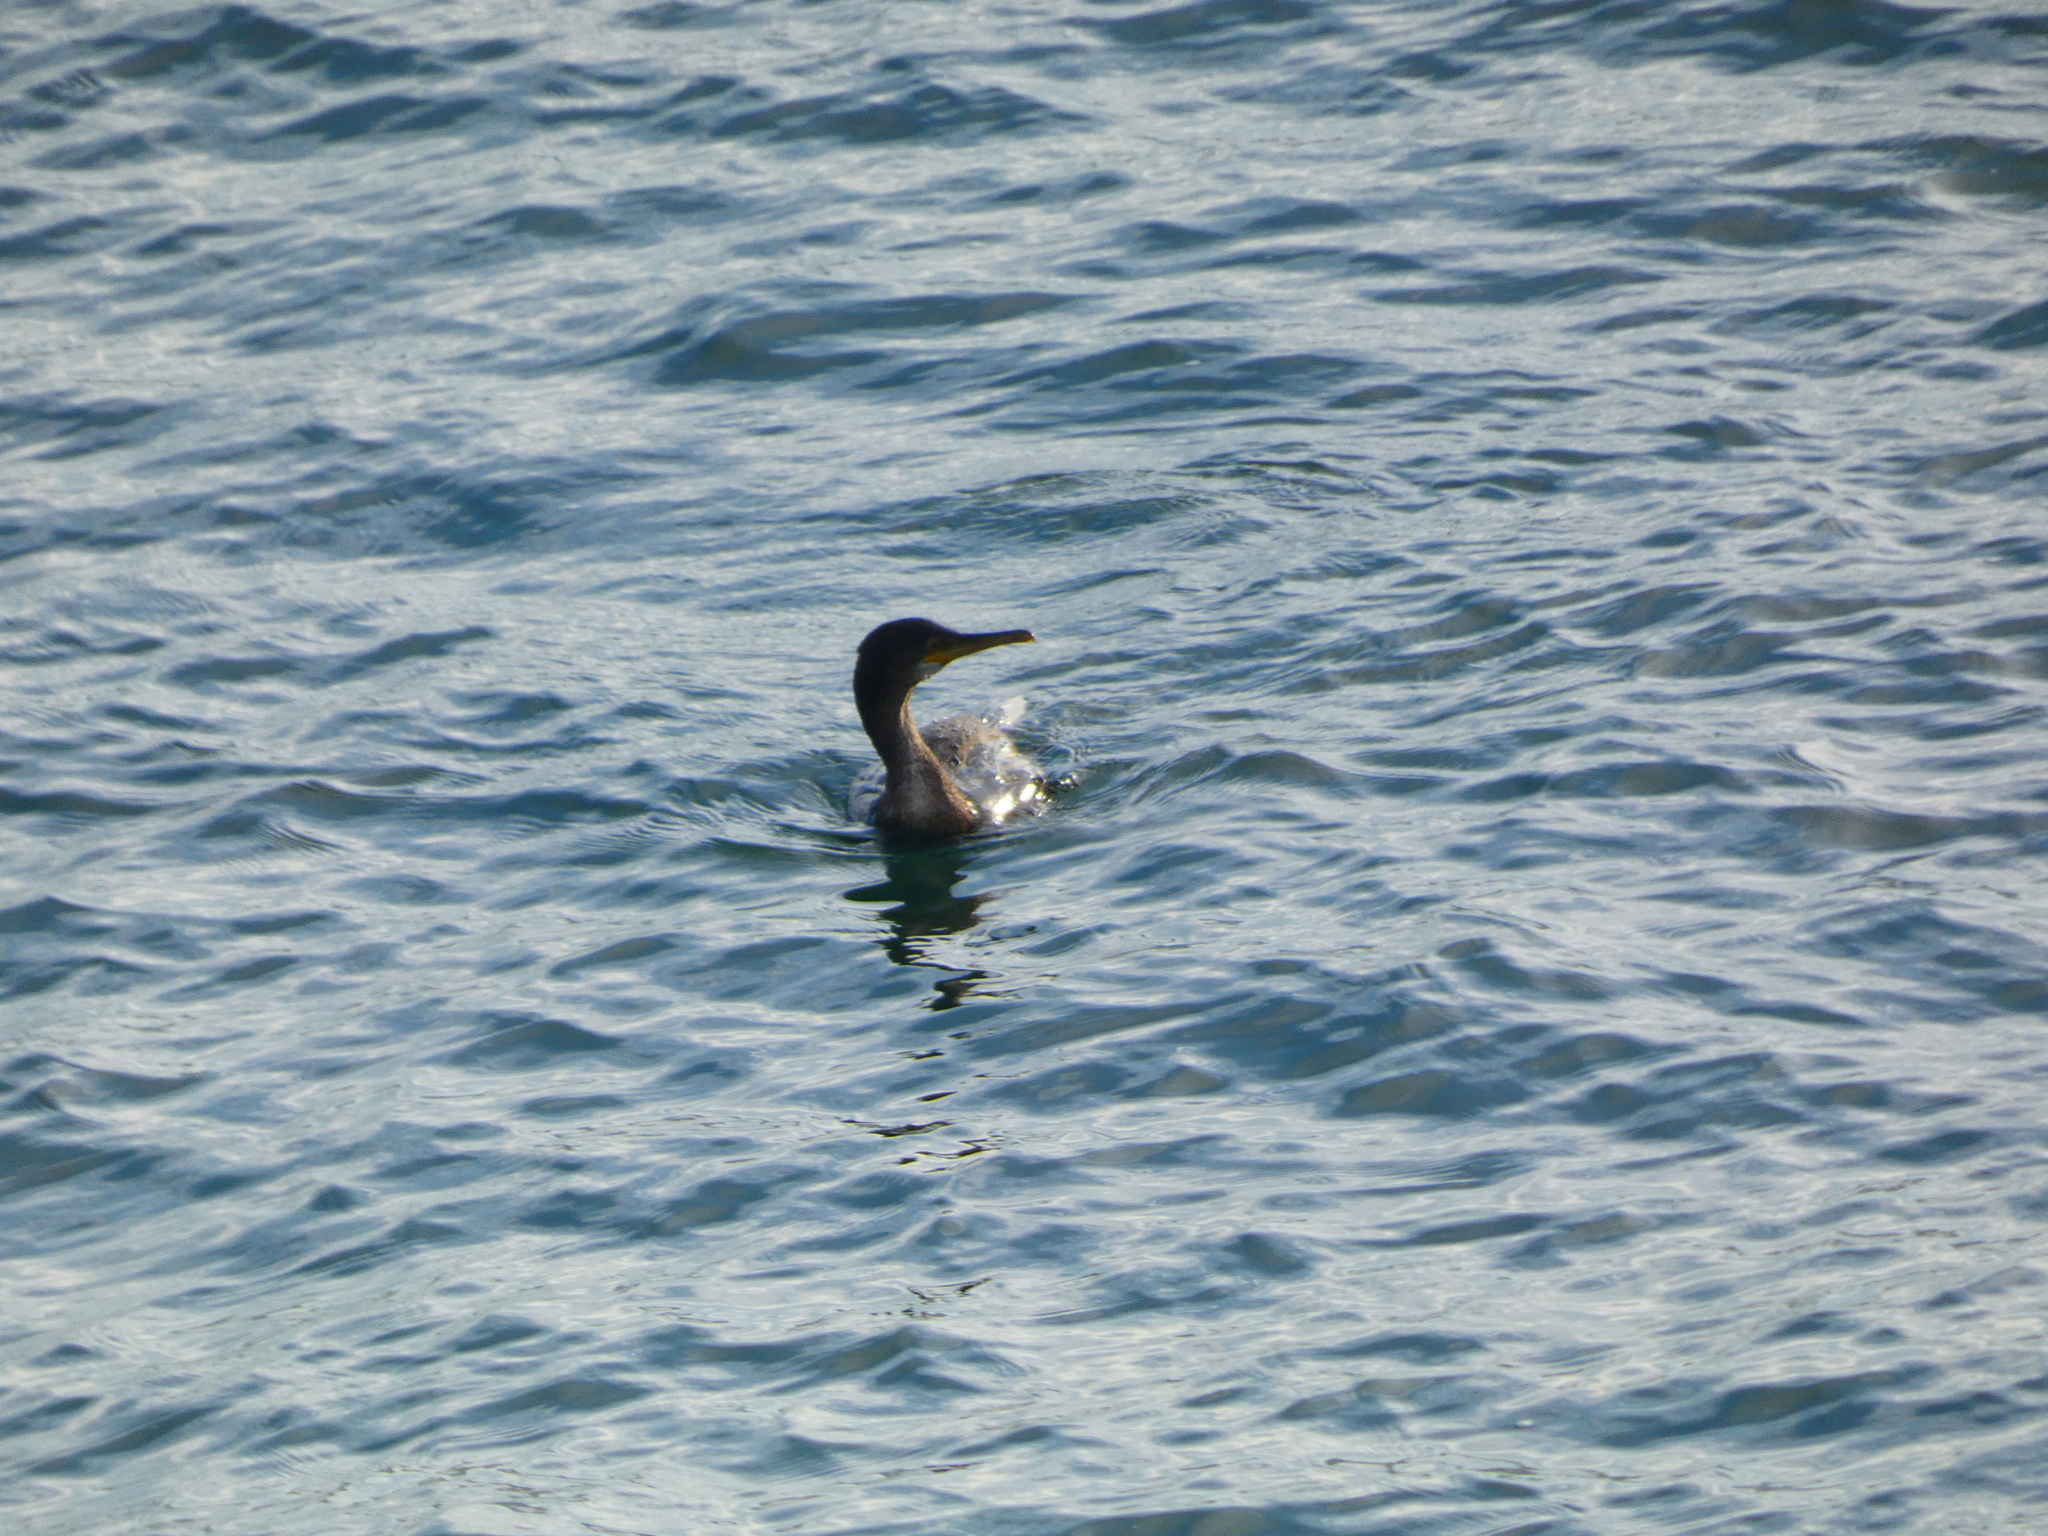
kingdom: Animalia
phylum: Chordata
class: Aves
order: Suliformes
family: Phalacrocoracidae
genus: Phalacrocorax
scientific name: Phalacrocorax aristotelis
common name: European shag
